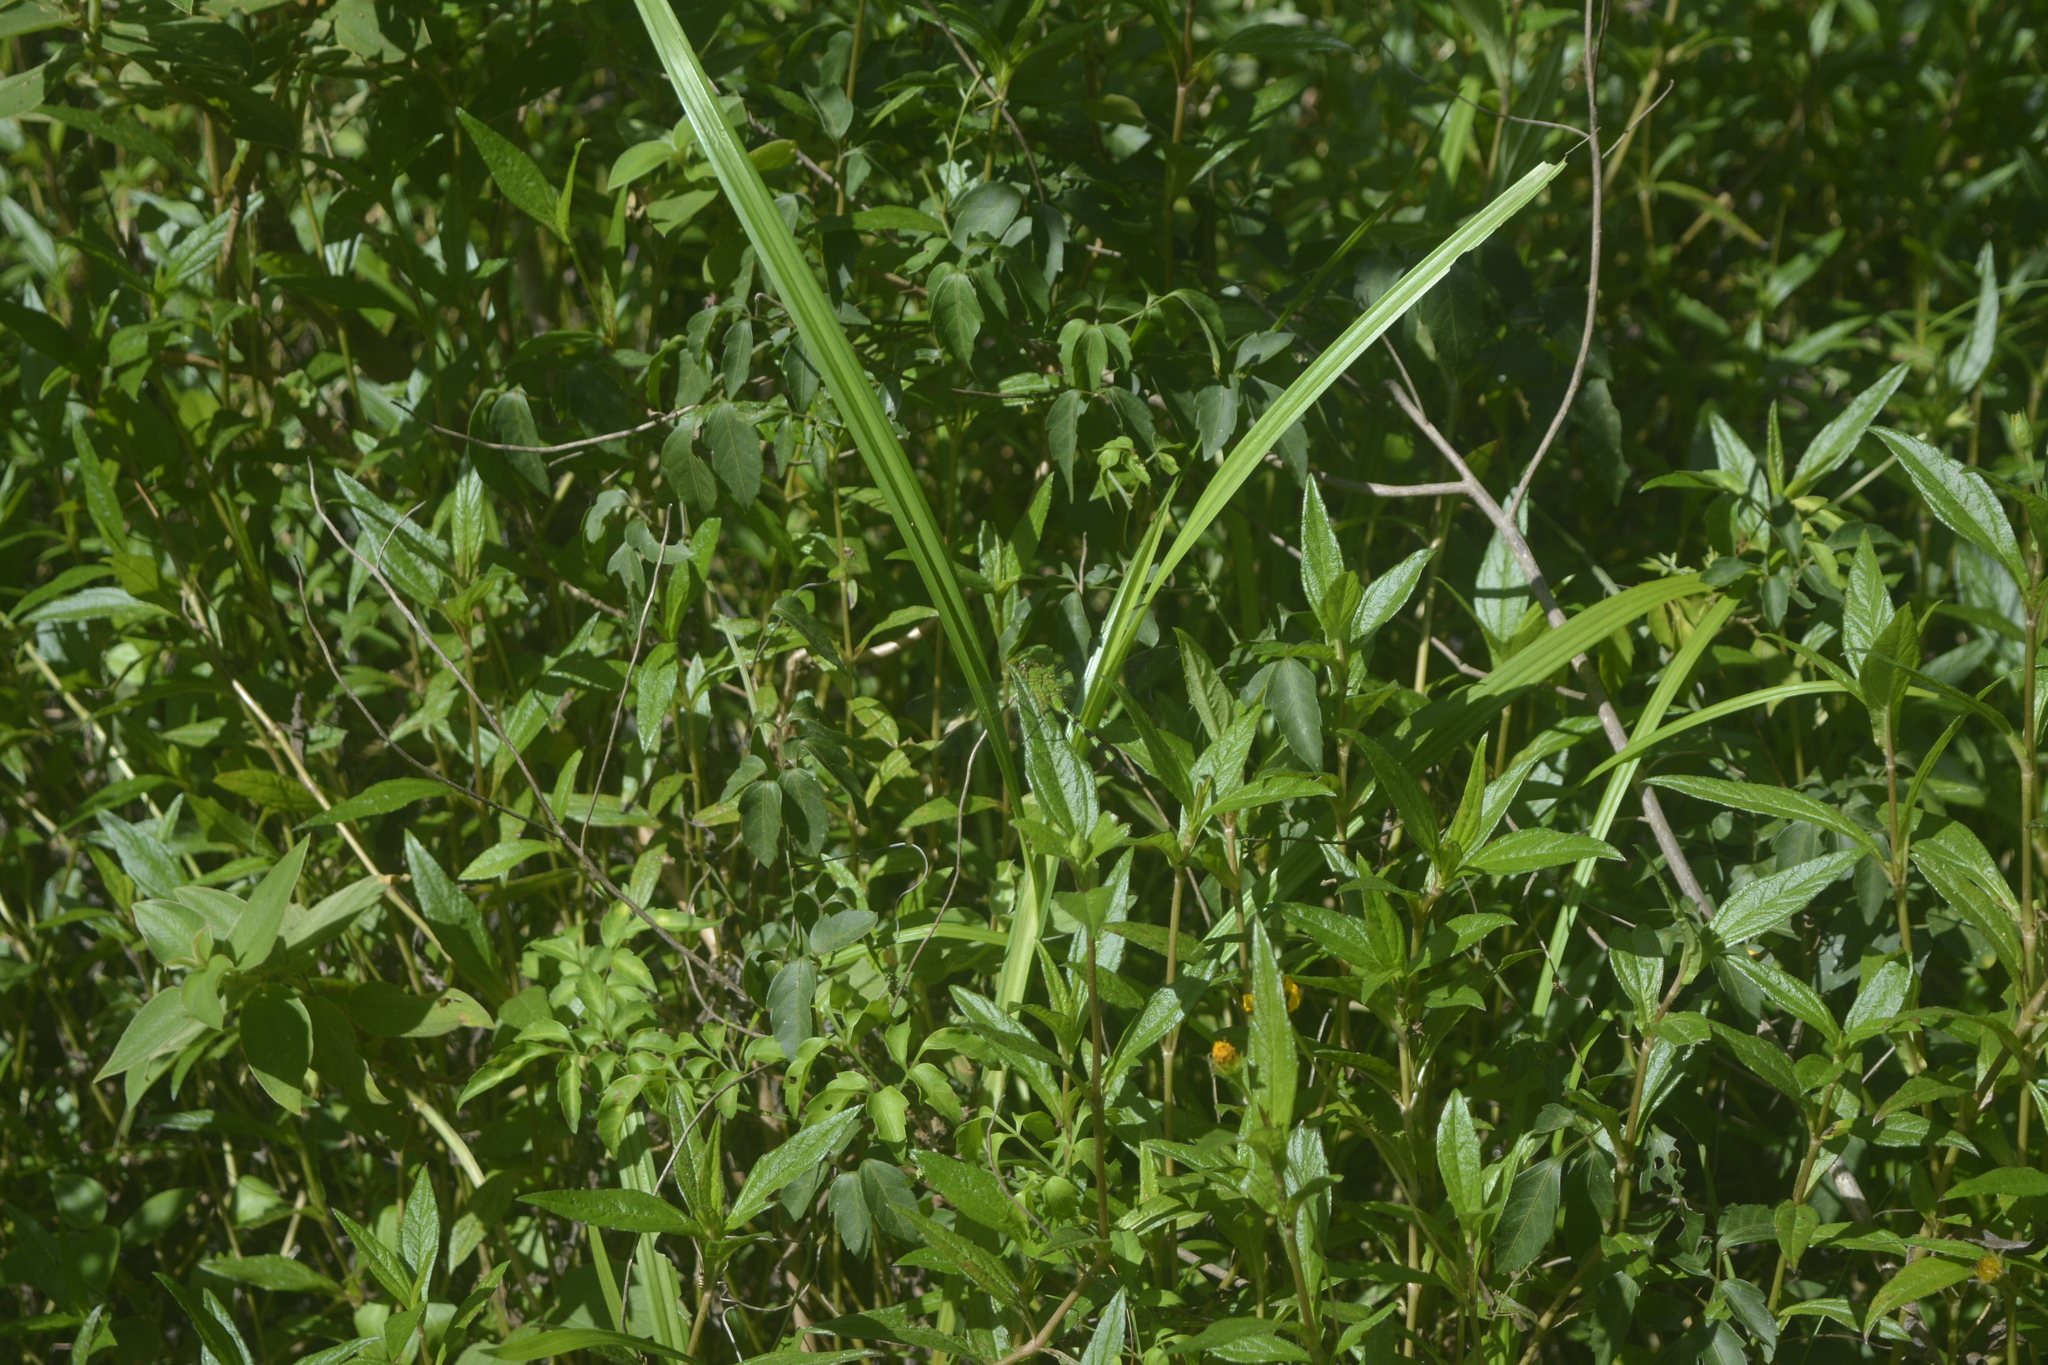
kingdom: Animalia
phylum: Arthropoda
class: Insecta
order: Odonata
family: Libellulidae
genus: Erythemis
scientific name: Erythemis vesiculosa
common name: Great pondhawk
